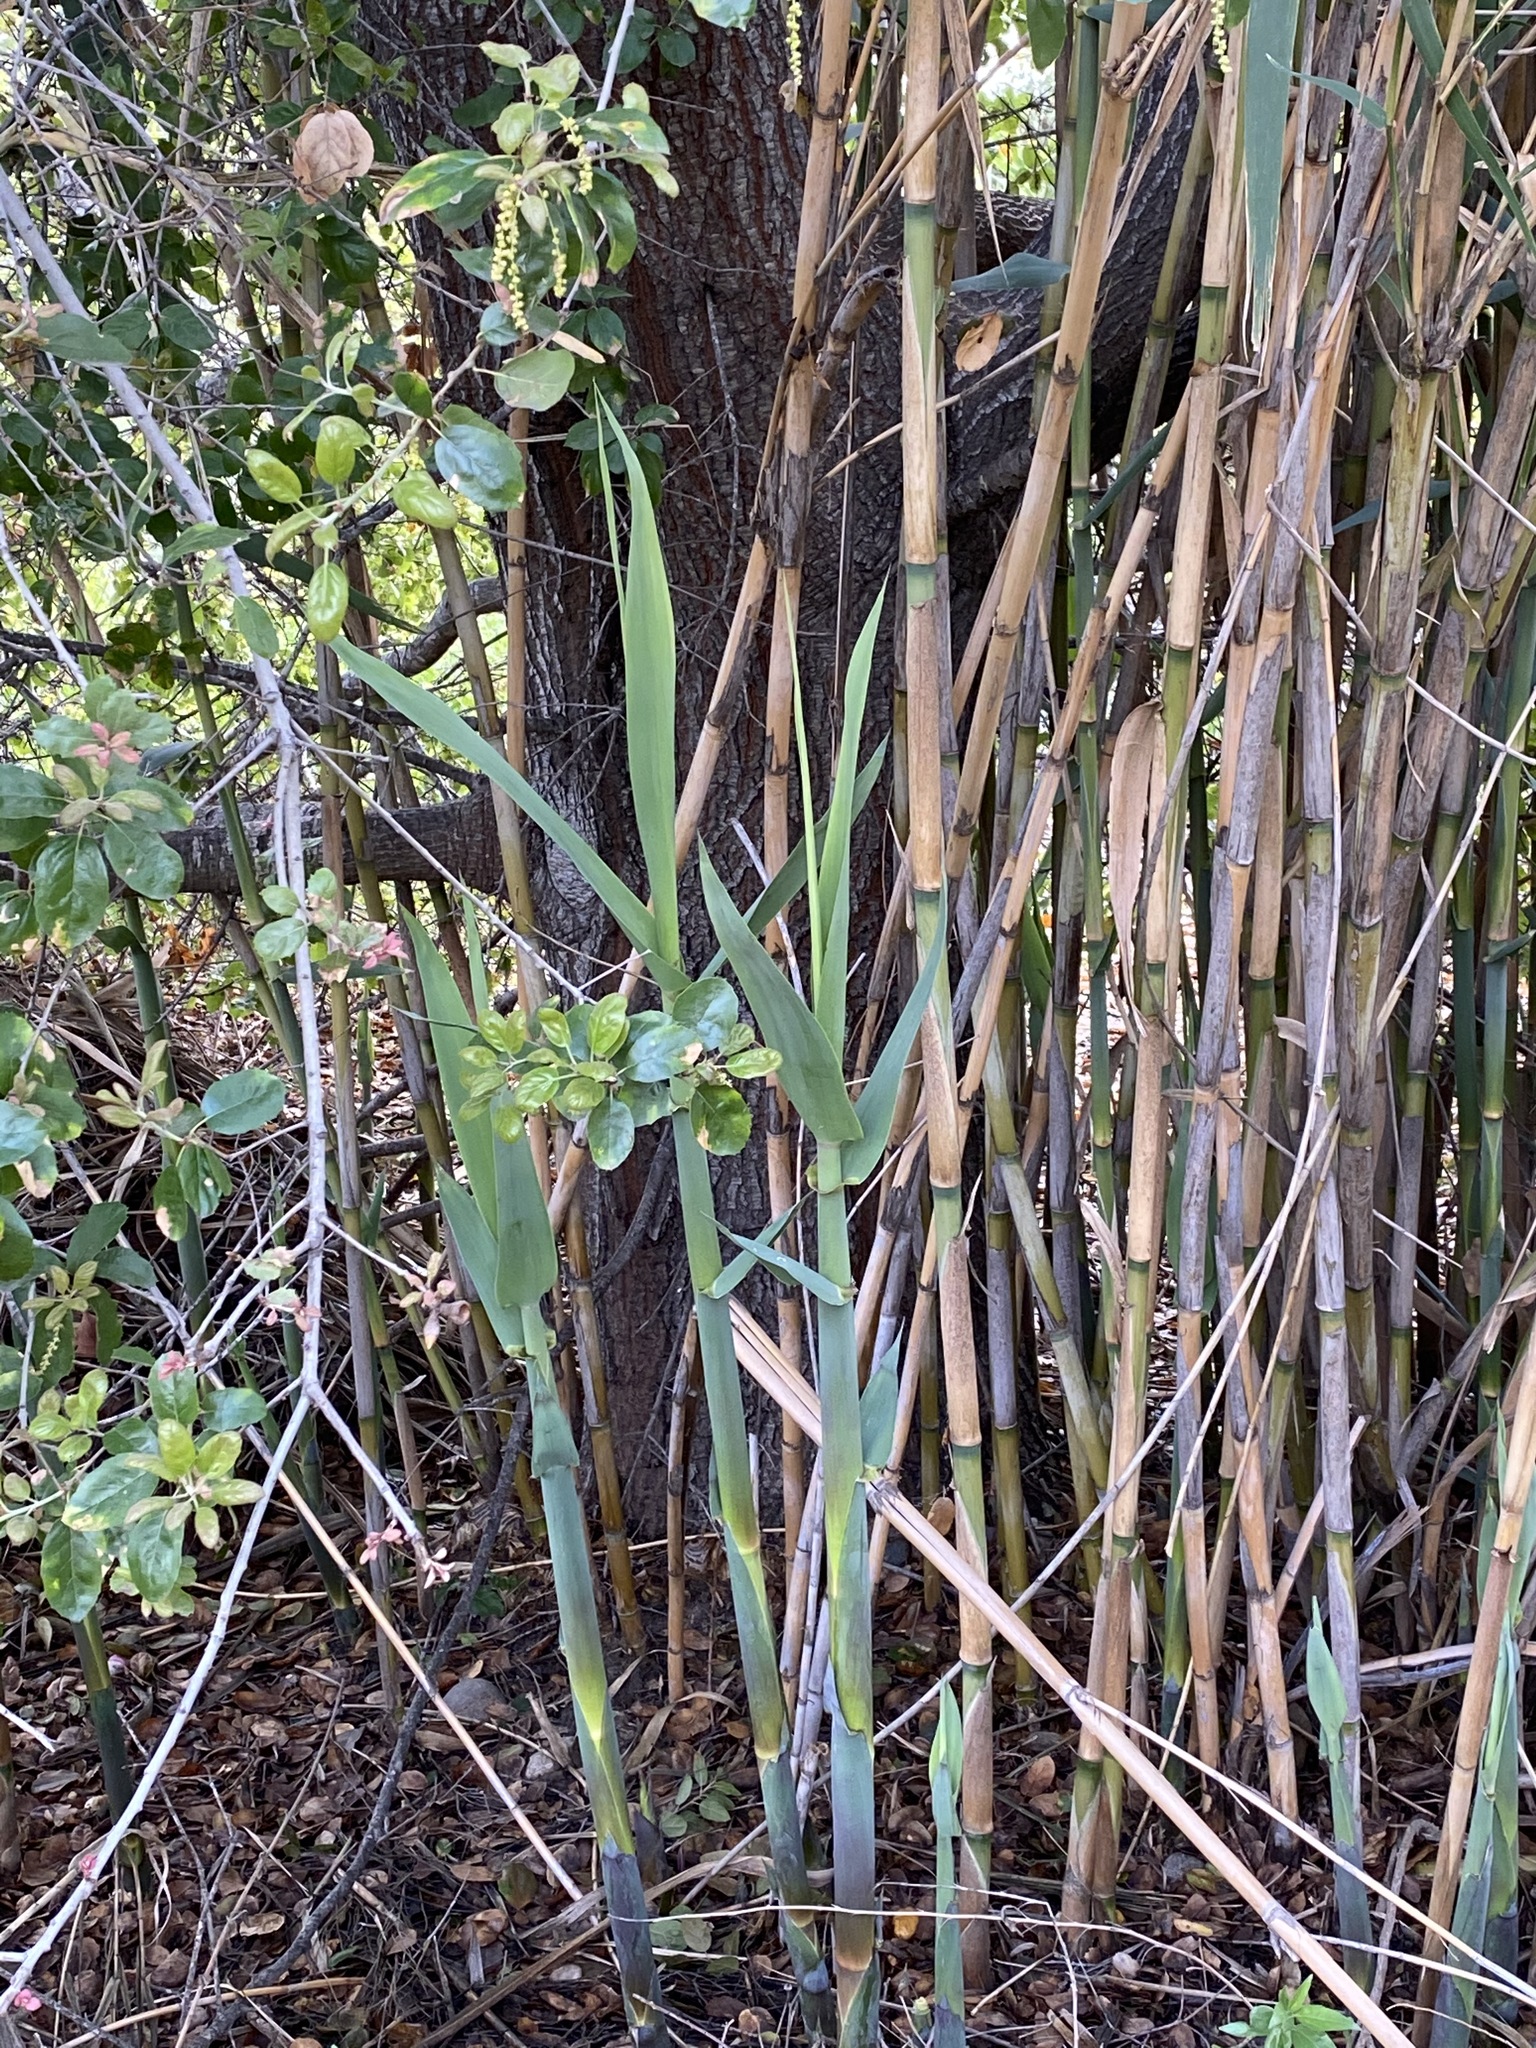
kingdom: Plantae
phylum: Tracheophyta
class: Liliopsida
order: Poales
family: Poaceae
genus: Arundo
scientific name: Arundo donax
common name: Giant reed
